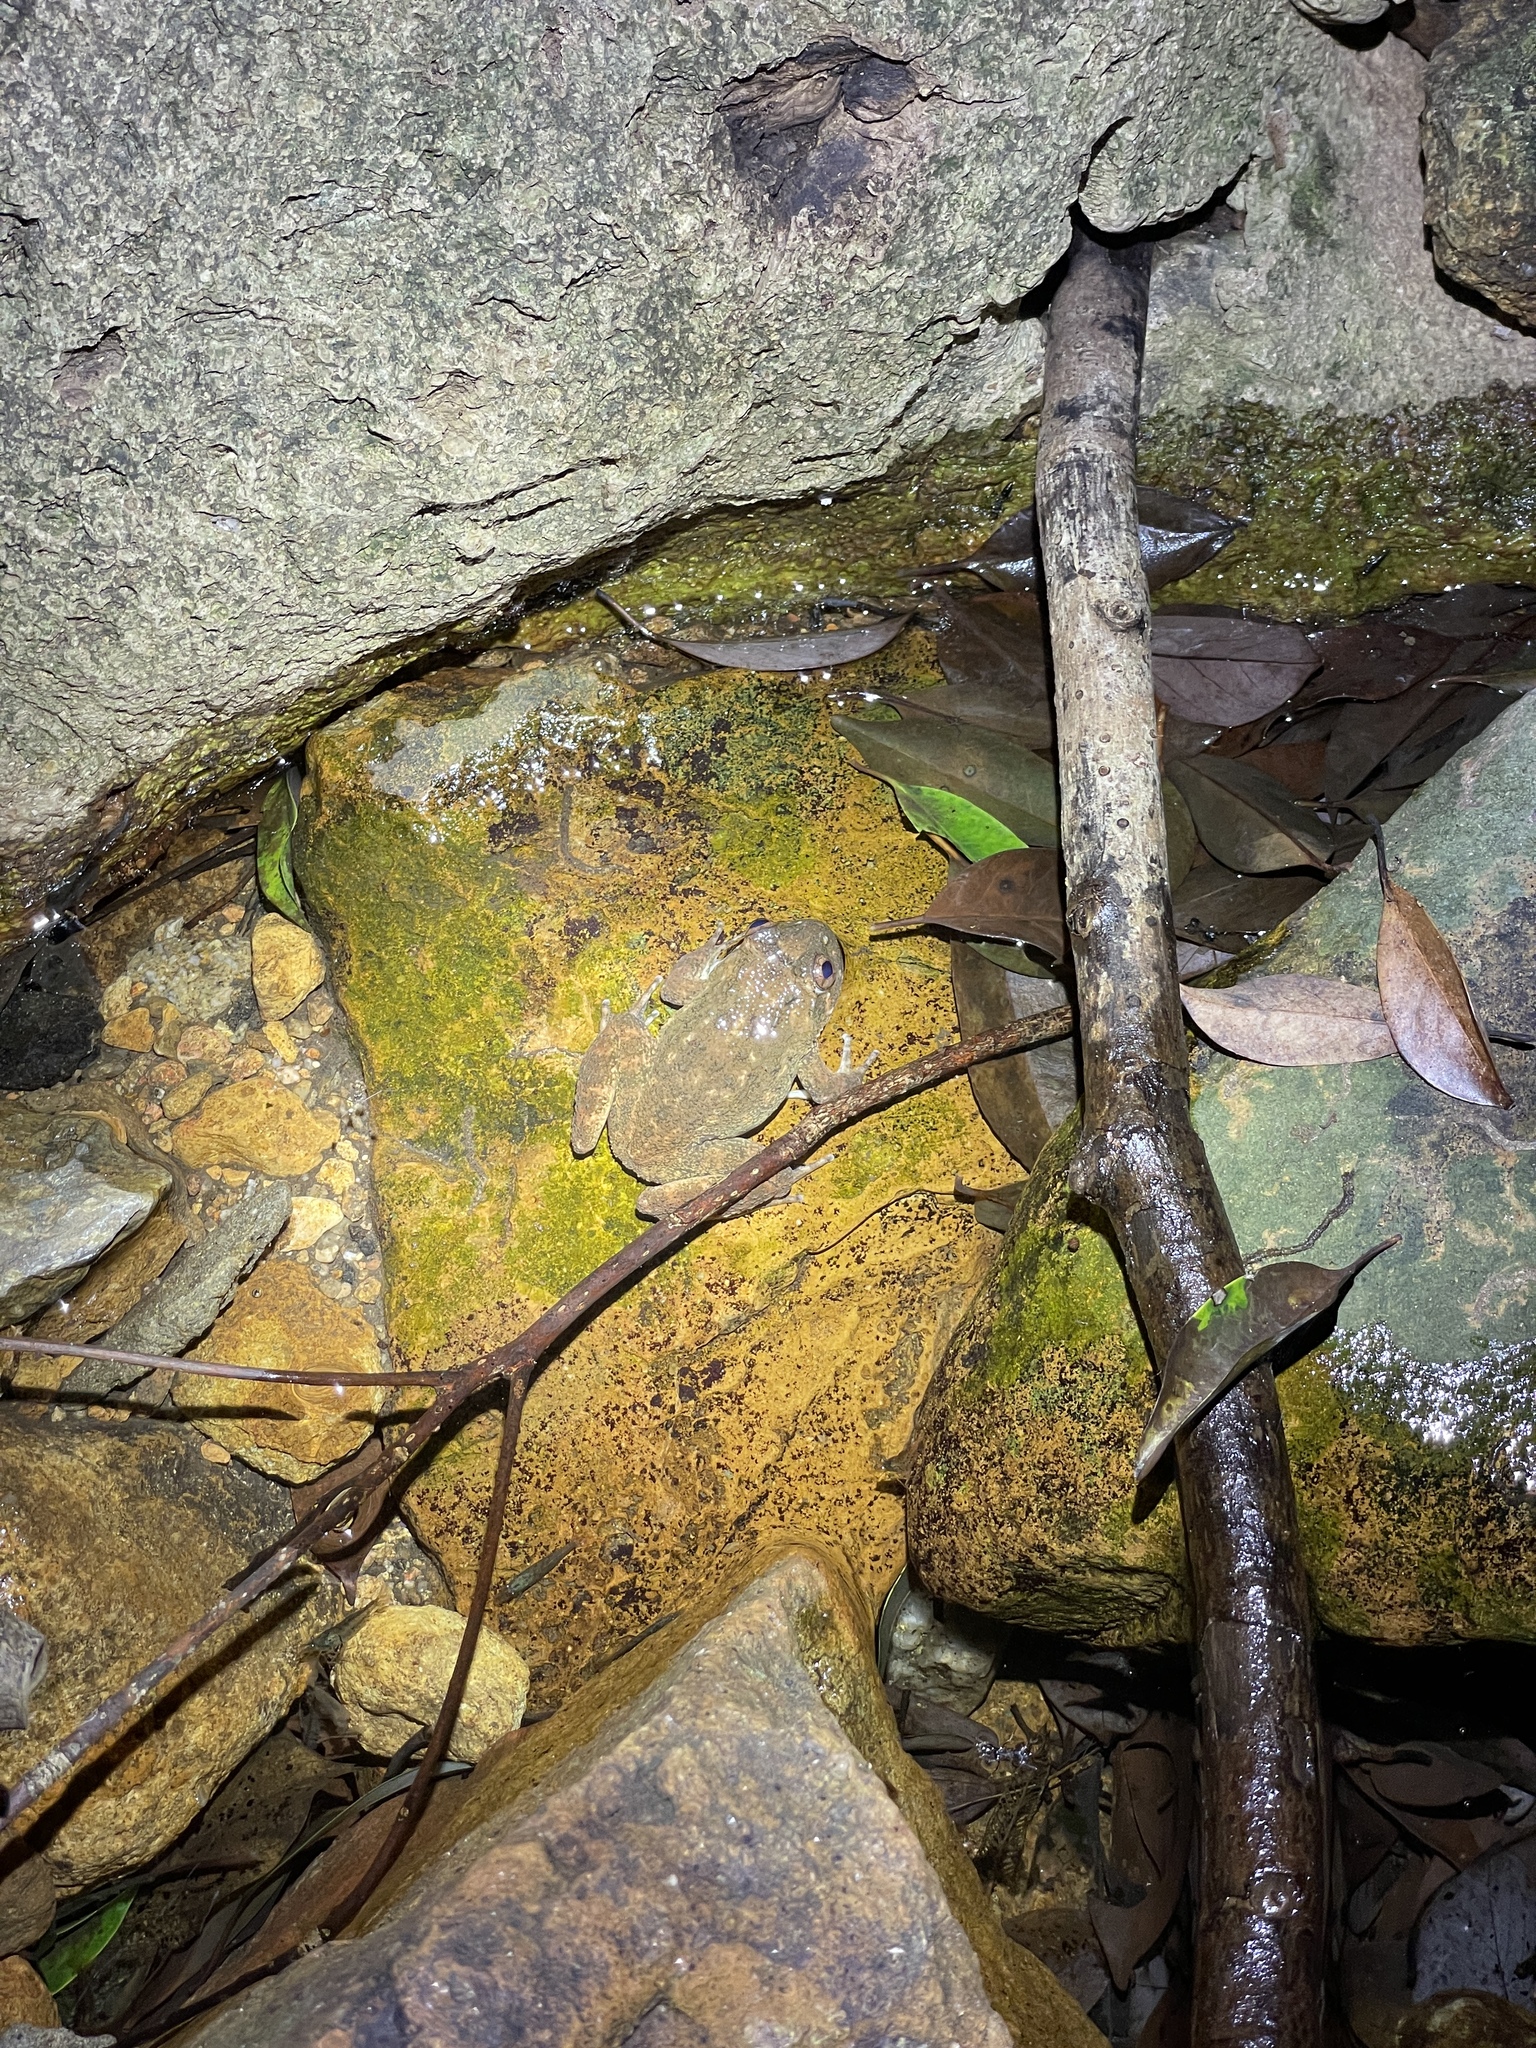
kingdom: Animalia
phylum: Chordata
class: Amphibia
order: Anura
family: Dicroglossidae
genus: Quasipaa
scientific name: Quasipaa exilispinosa
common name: Hong kong paa frog
